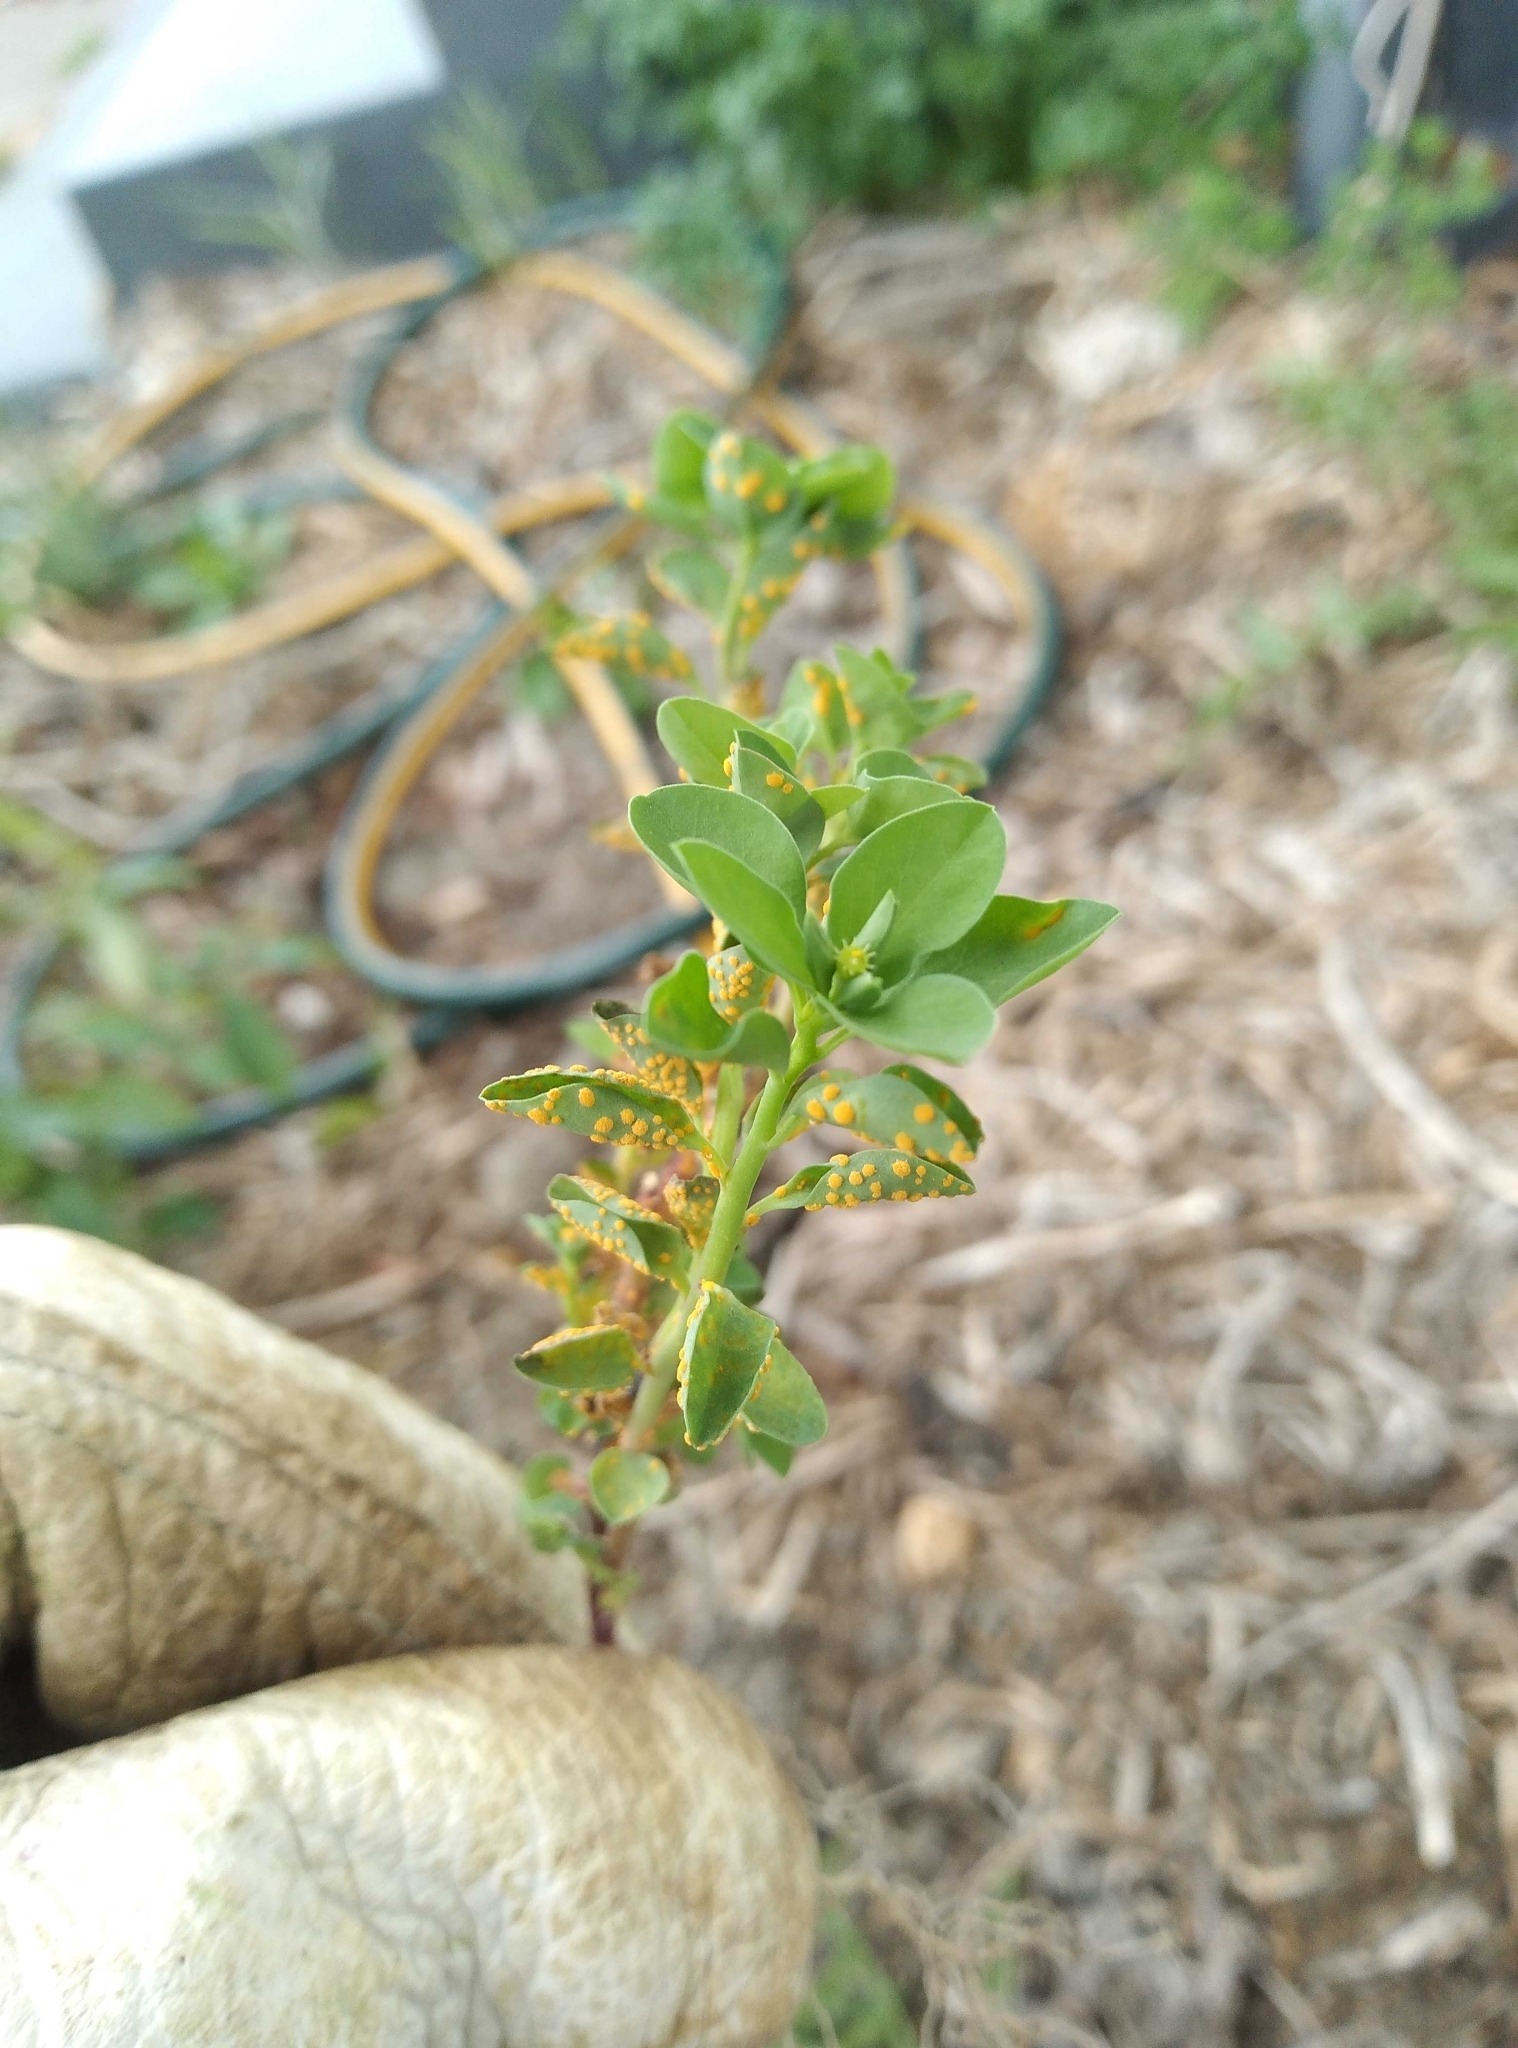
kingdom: Fungi
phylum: Basidiomycota
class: Pucciniomycetes
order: Pucciniales
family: Melampsoraceae
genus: Melampsora
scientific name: Melampsora euphorbiae
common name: Spurge rust
